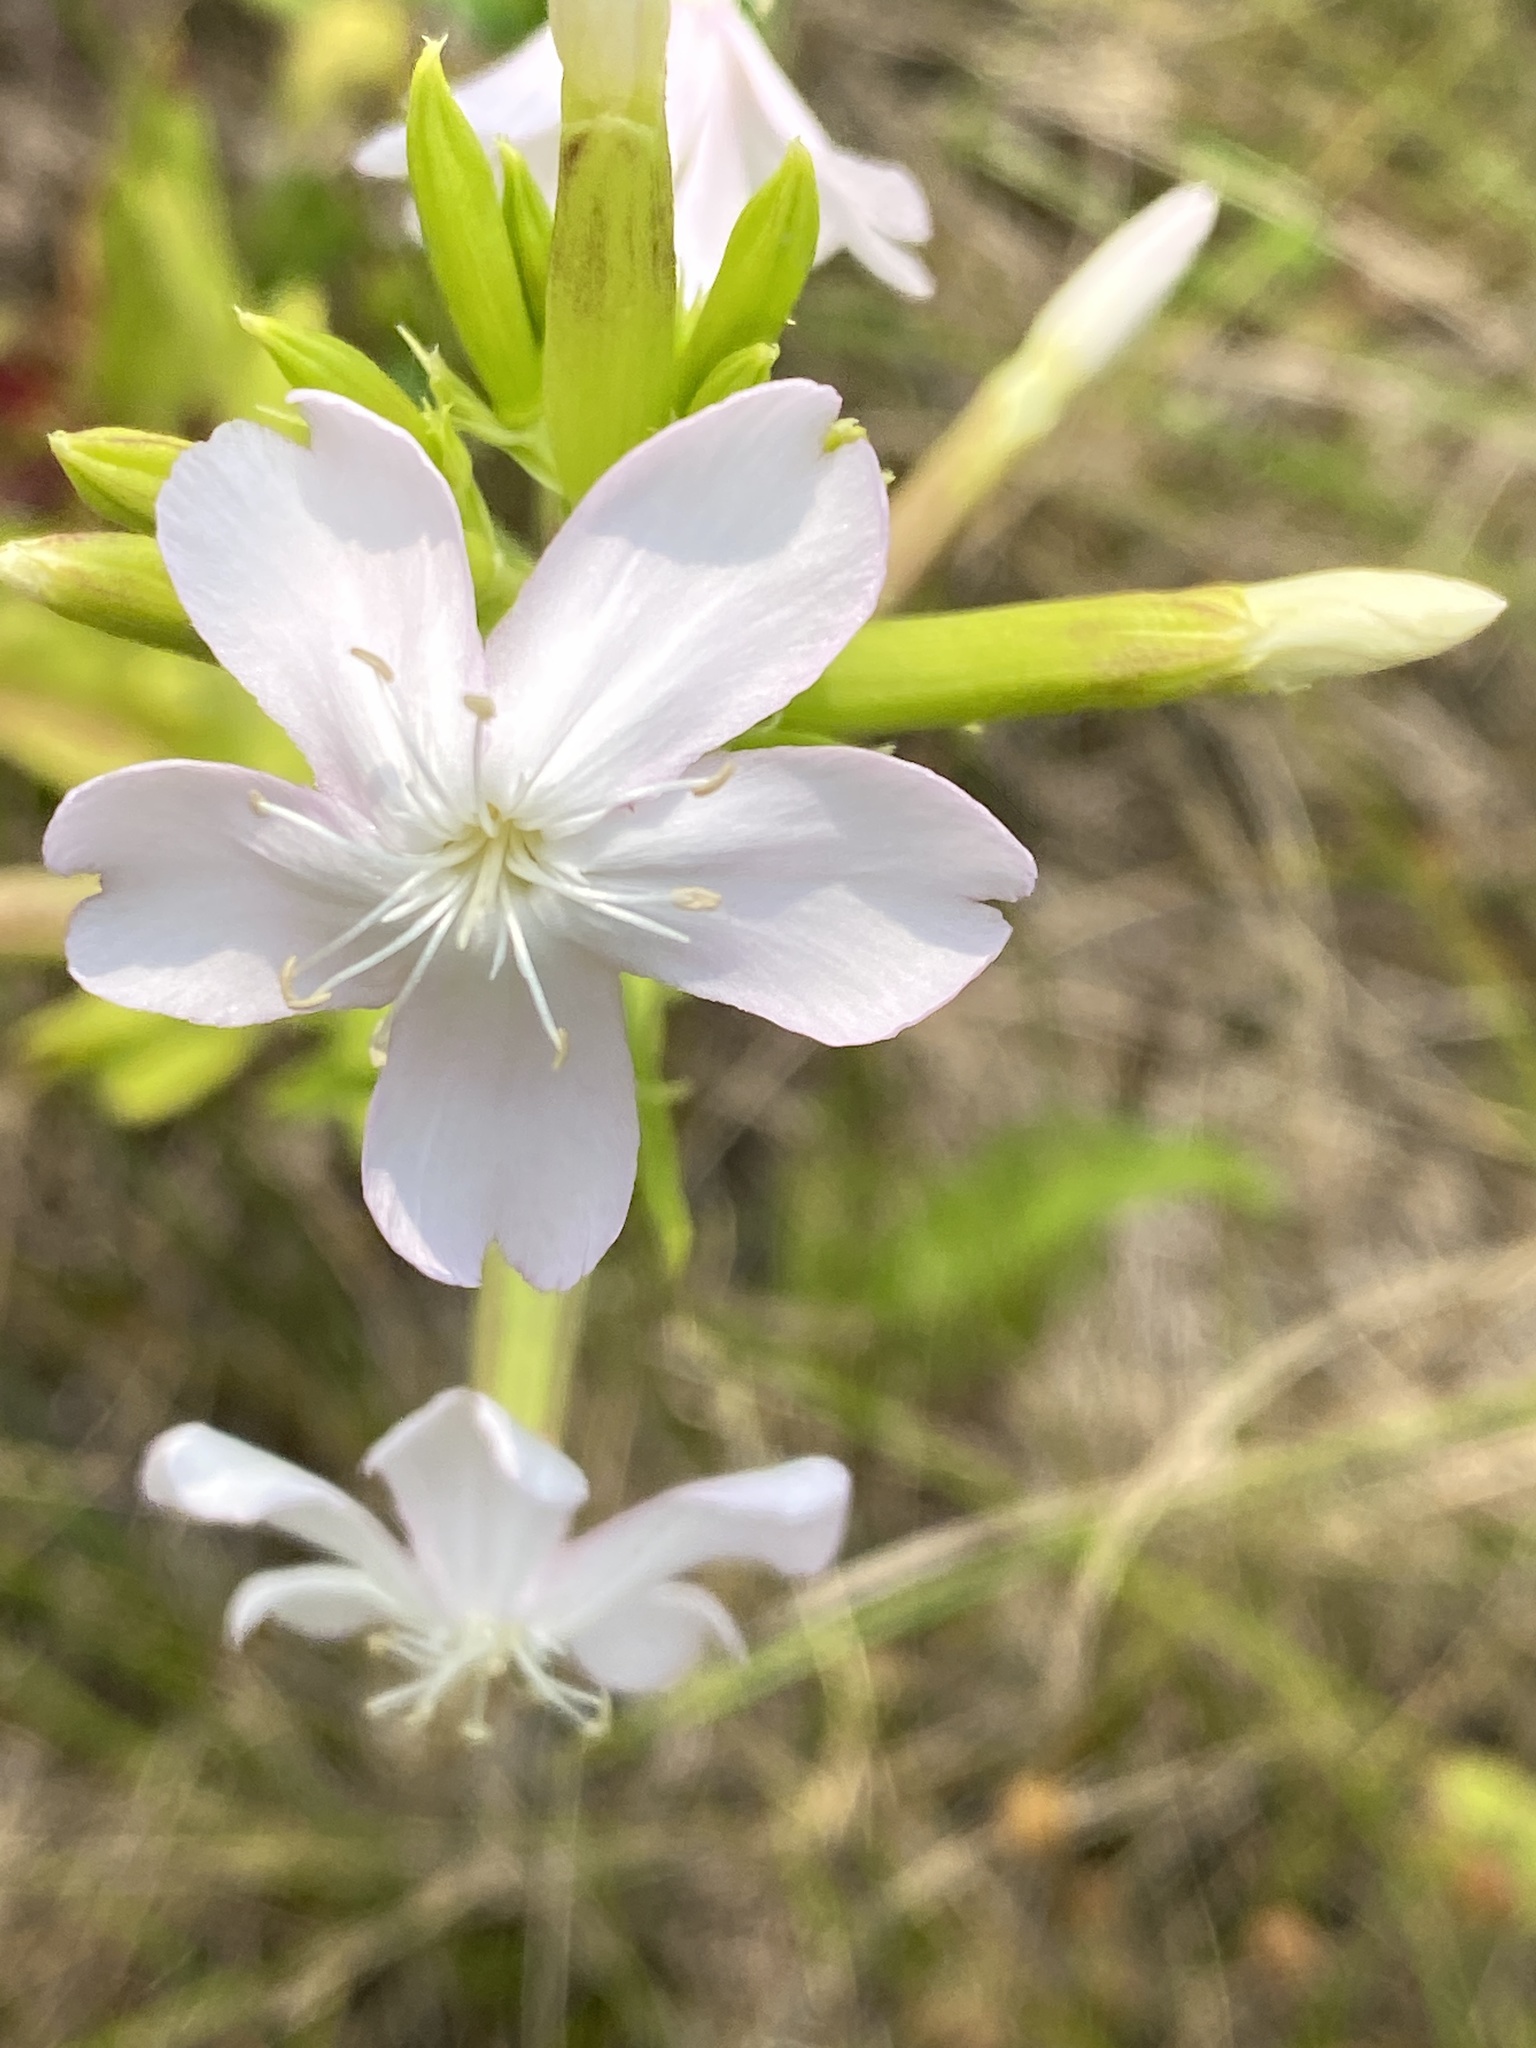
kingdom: Plantae
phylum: Tracheophyta
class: Magnoliopsida
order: Caryophyllales
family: Caryophyllaceae
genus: Saponaria
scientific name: Saponaria officinalis
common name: Soapwort
